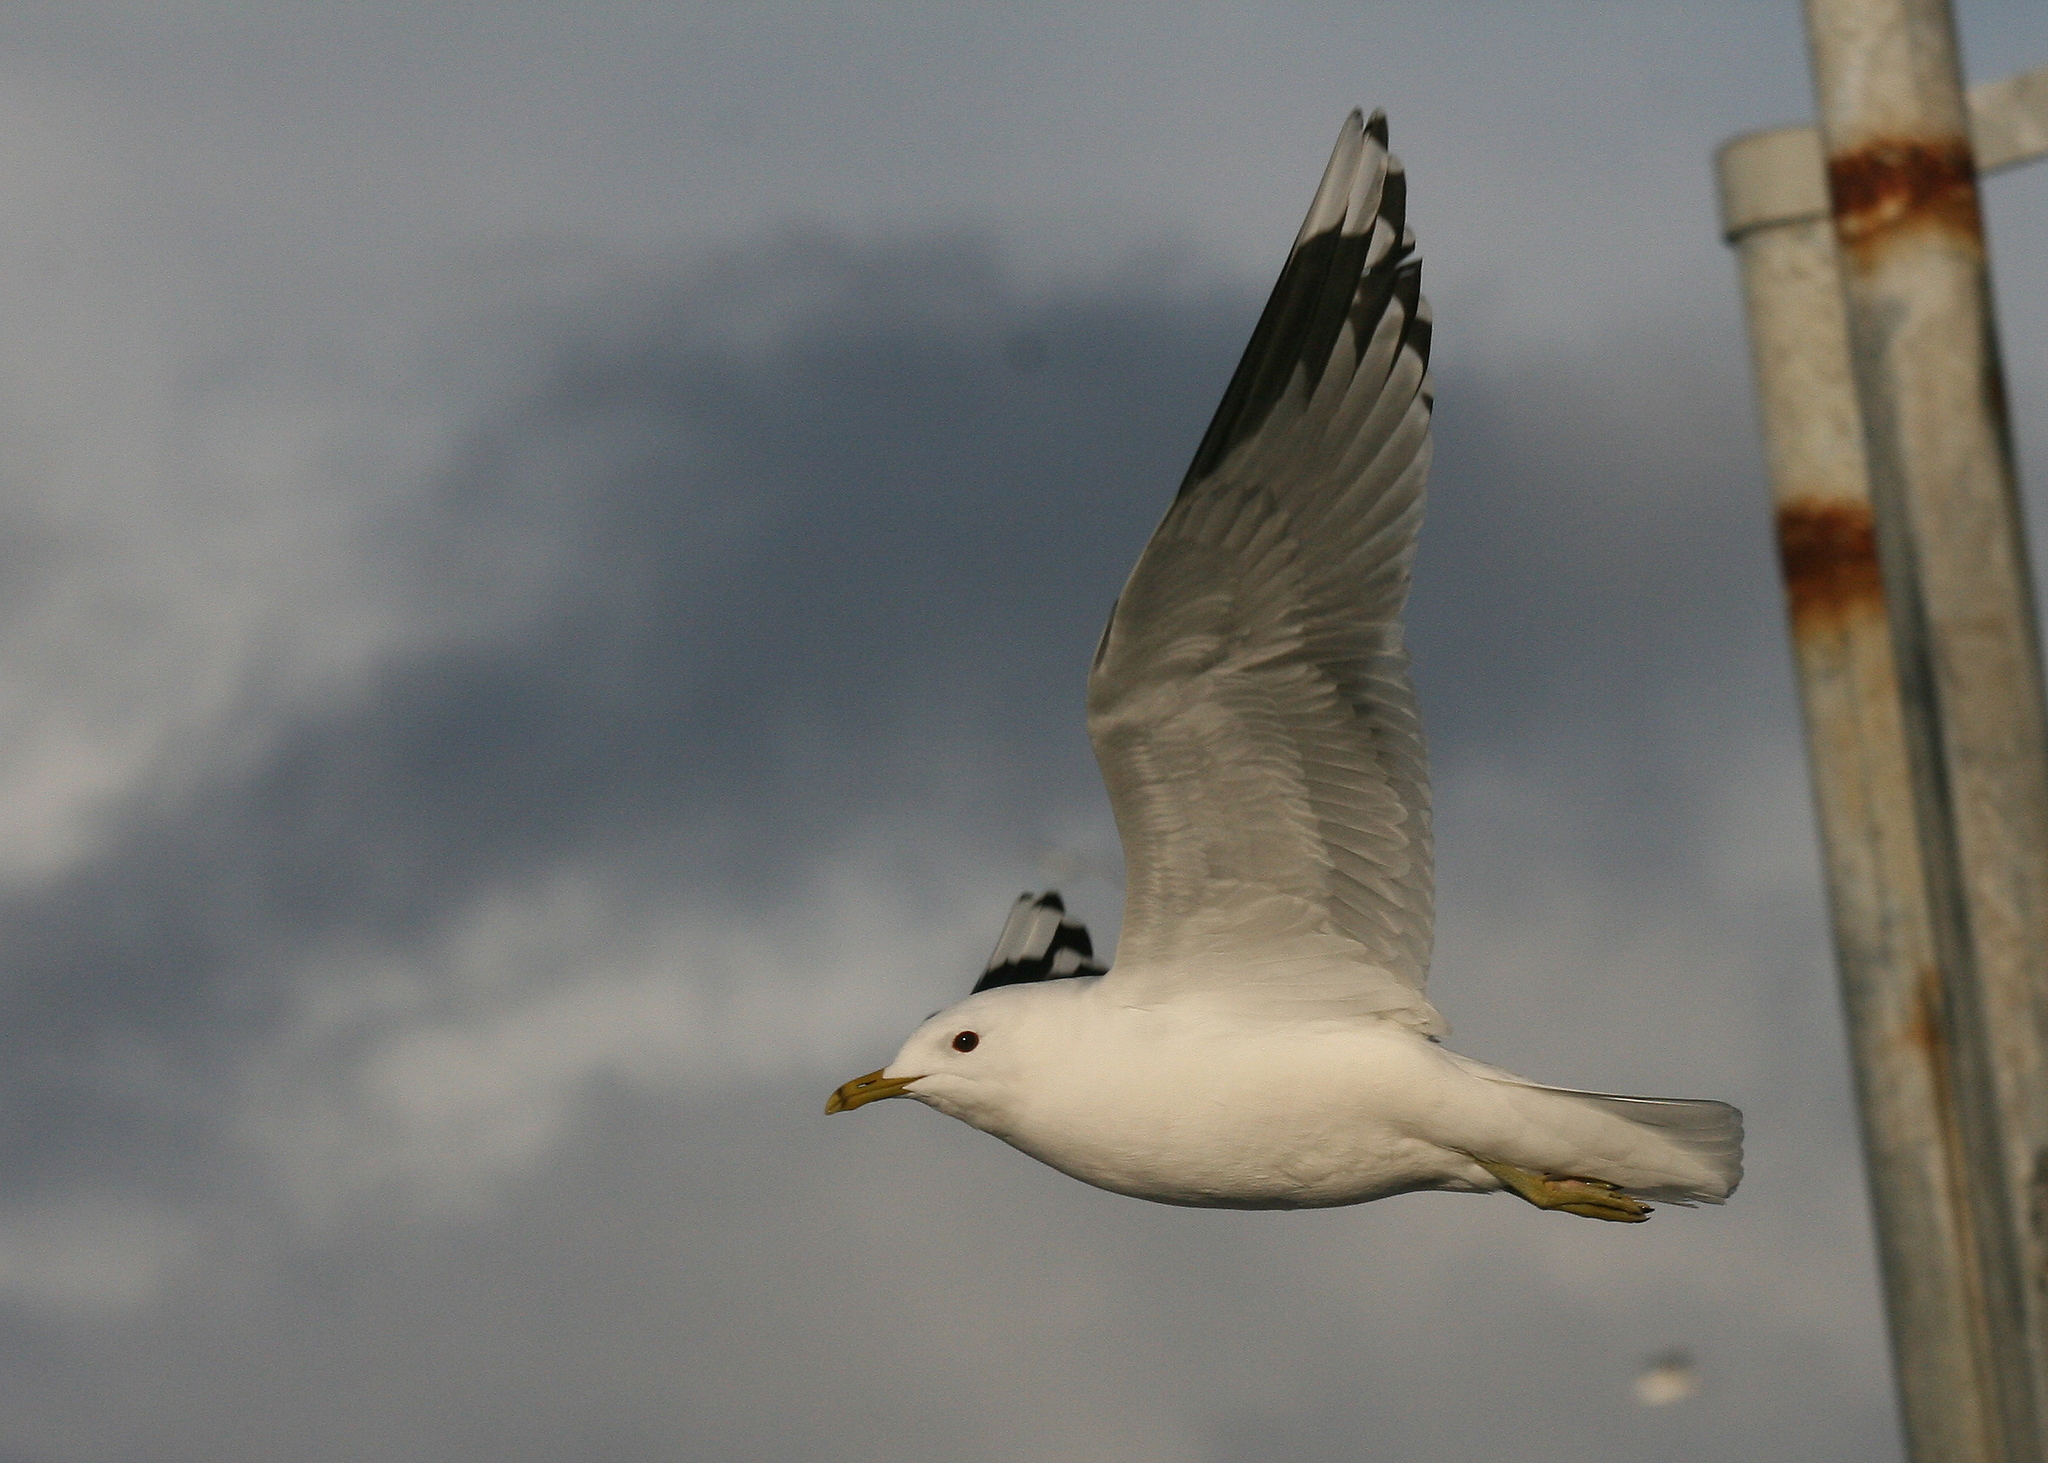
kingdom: Animalia
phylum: Chordata
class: Aves
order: Charadriiformes
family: Laridae
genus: Larus
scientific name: Larus canus
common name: Mew gull
